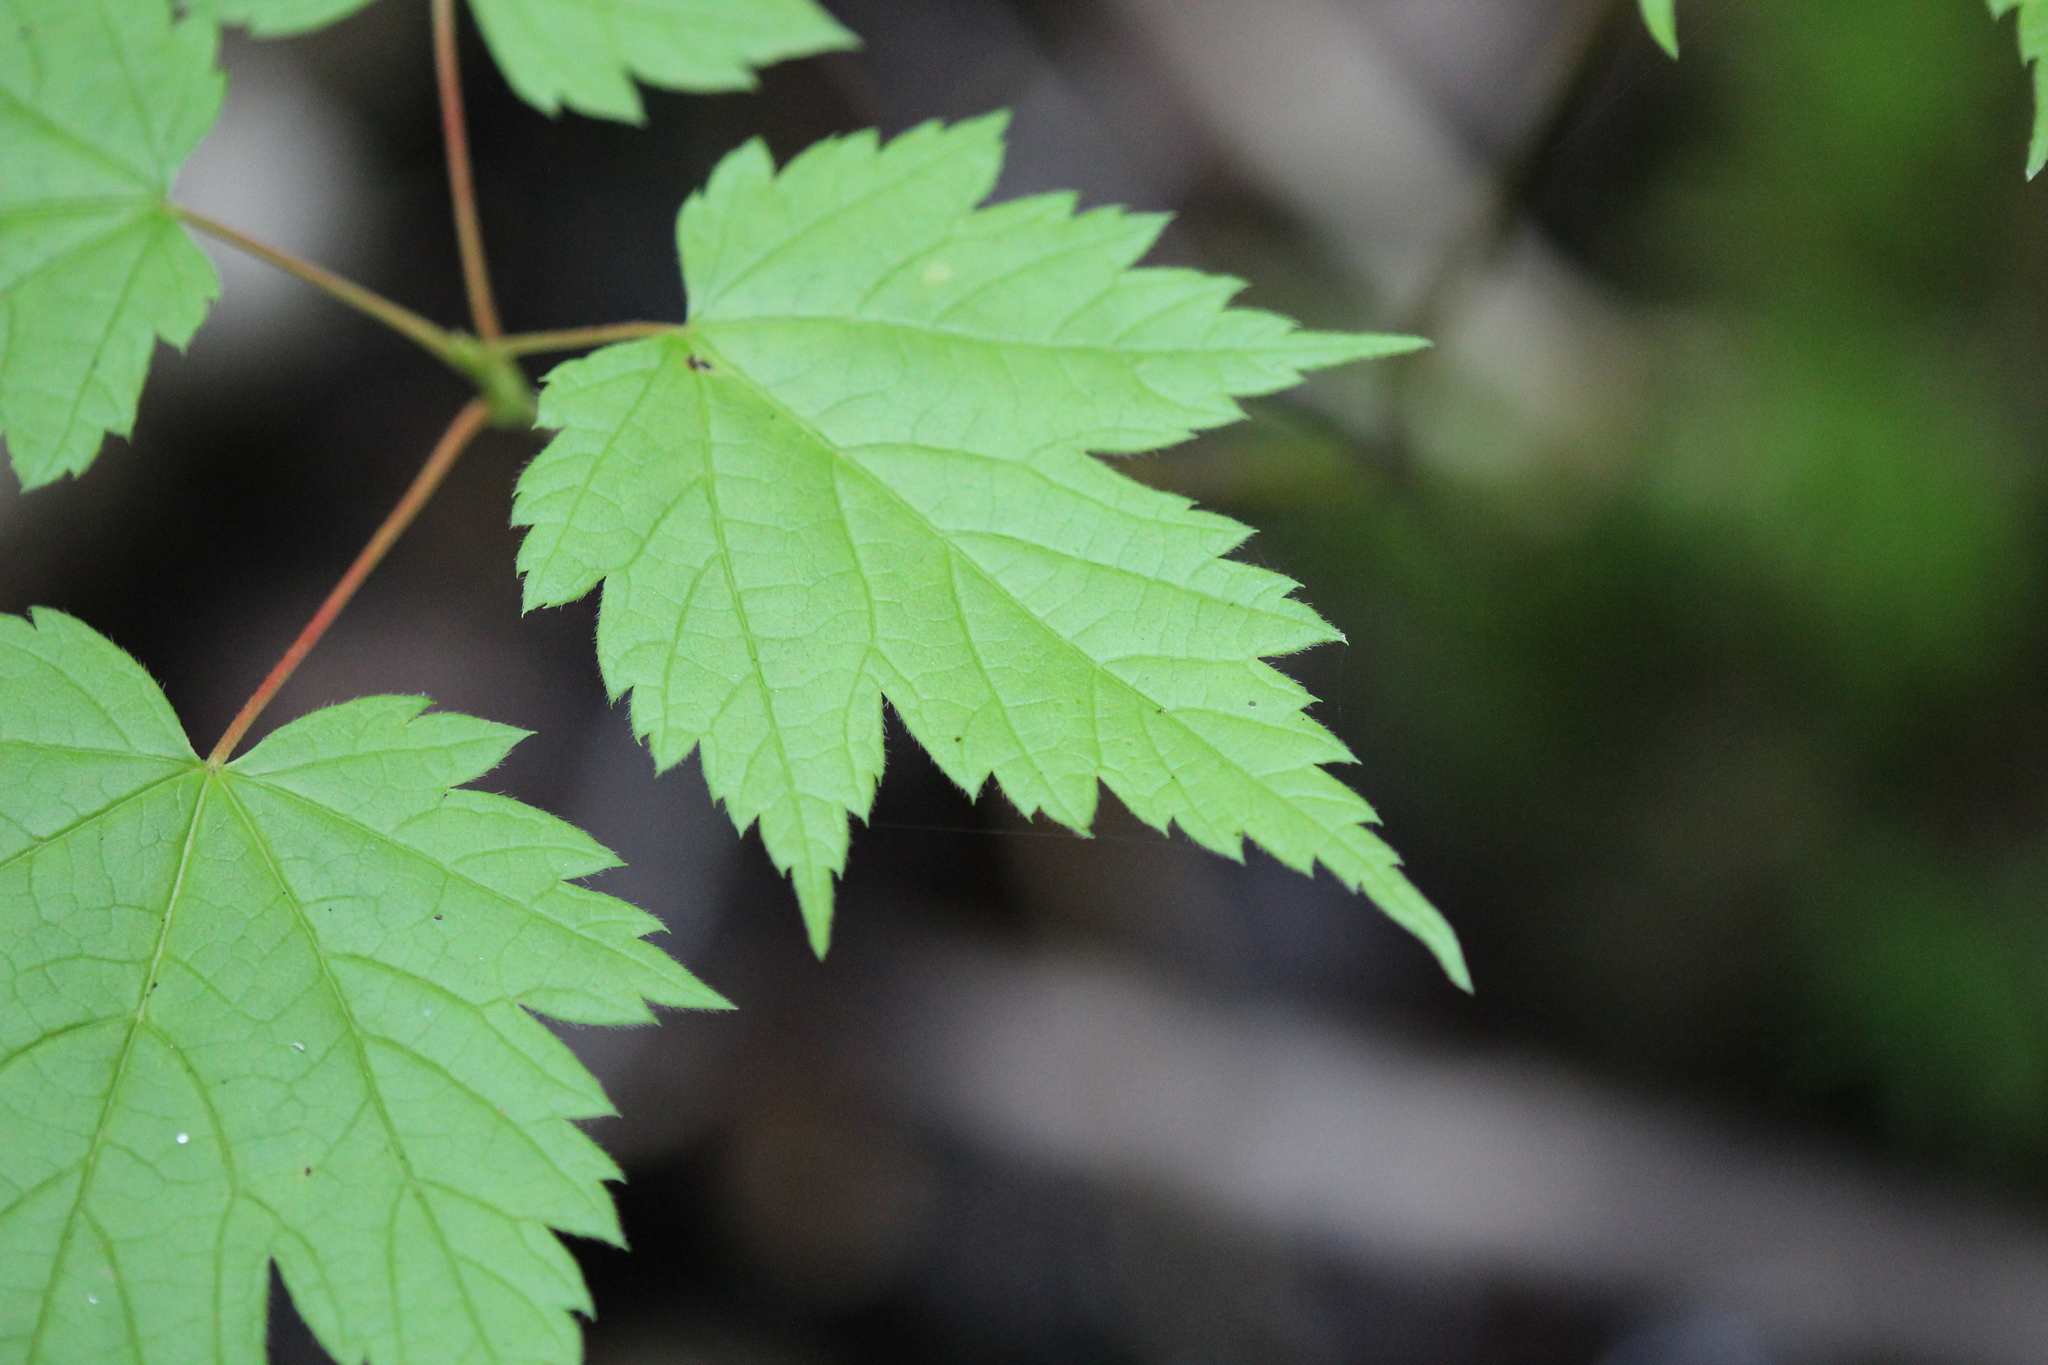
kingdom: Plantae
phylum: Tracheophyta
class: Magnoliopsida
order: Sapindales
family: Sapindaceae
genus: Acer
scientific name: Acer spicatum
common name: Mountain maple
